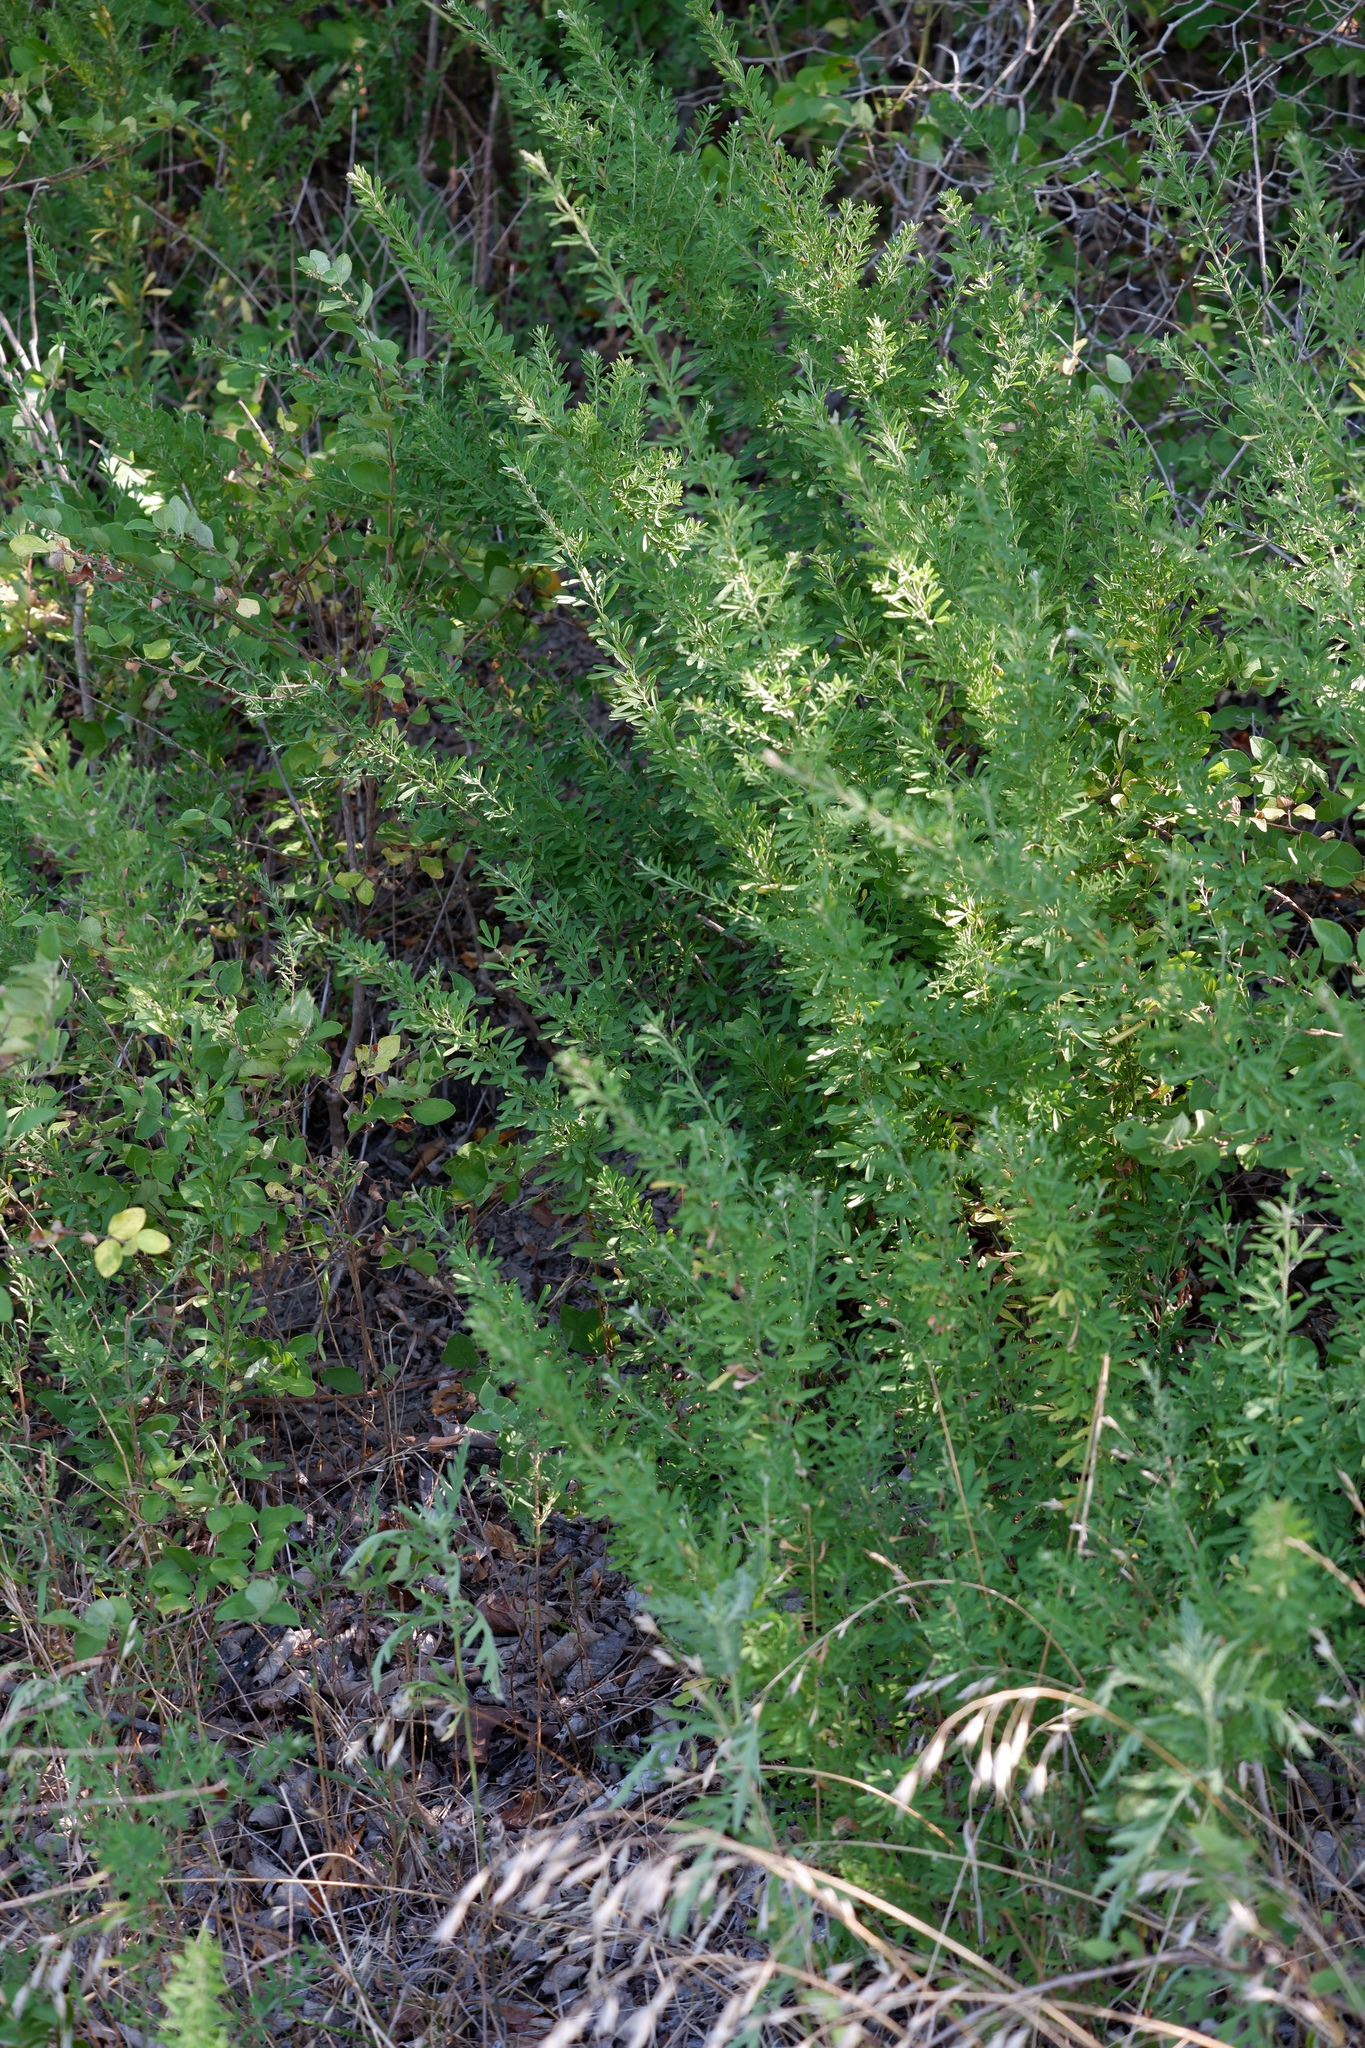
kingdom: Plantae
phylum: Tracheophyta
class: Magnoliopsida
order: Fabales
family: Fabaceae
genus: Lespedeza
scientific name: Lespedeza cuneata
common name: Chinese bush-clover
